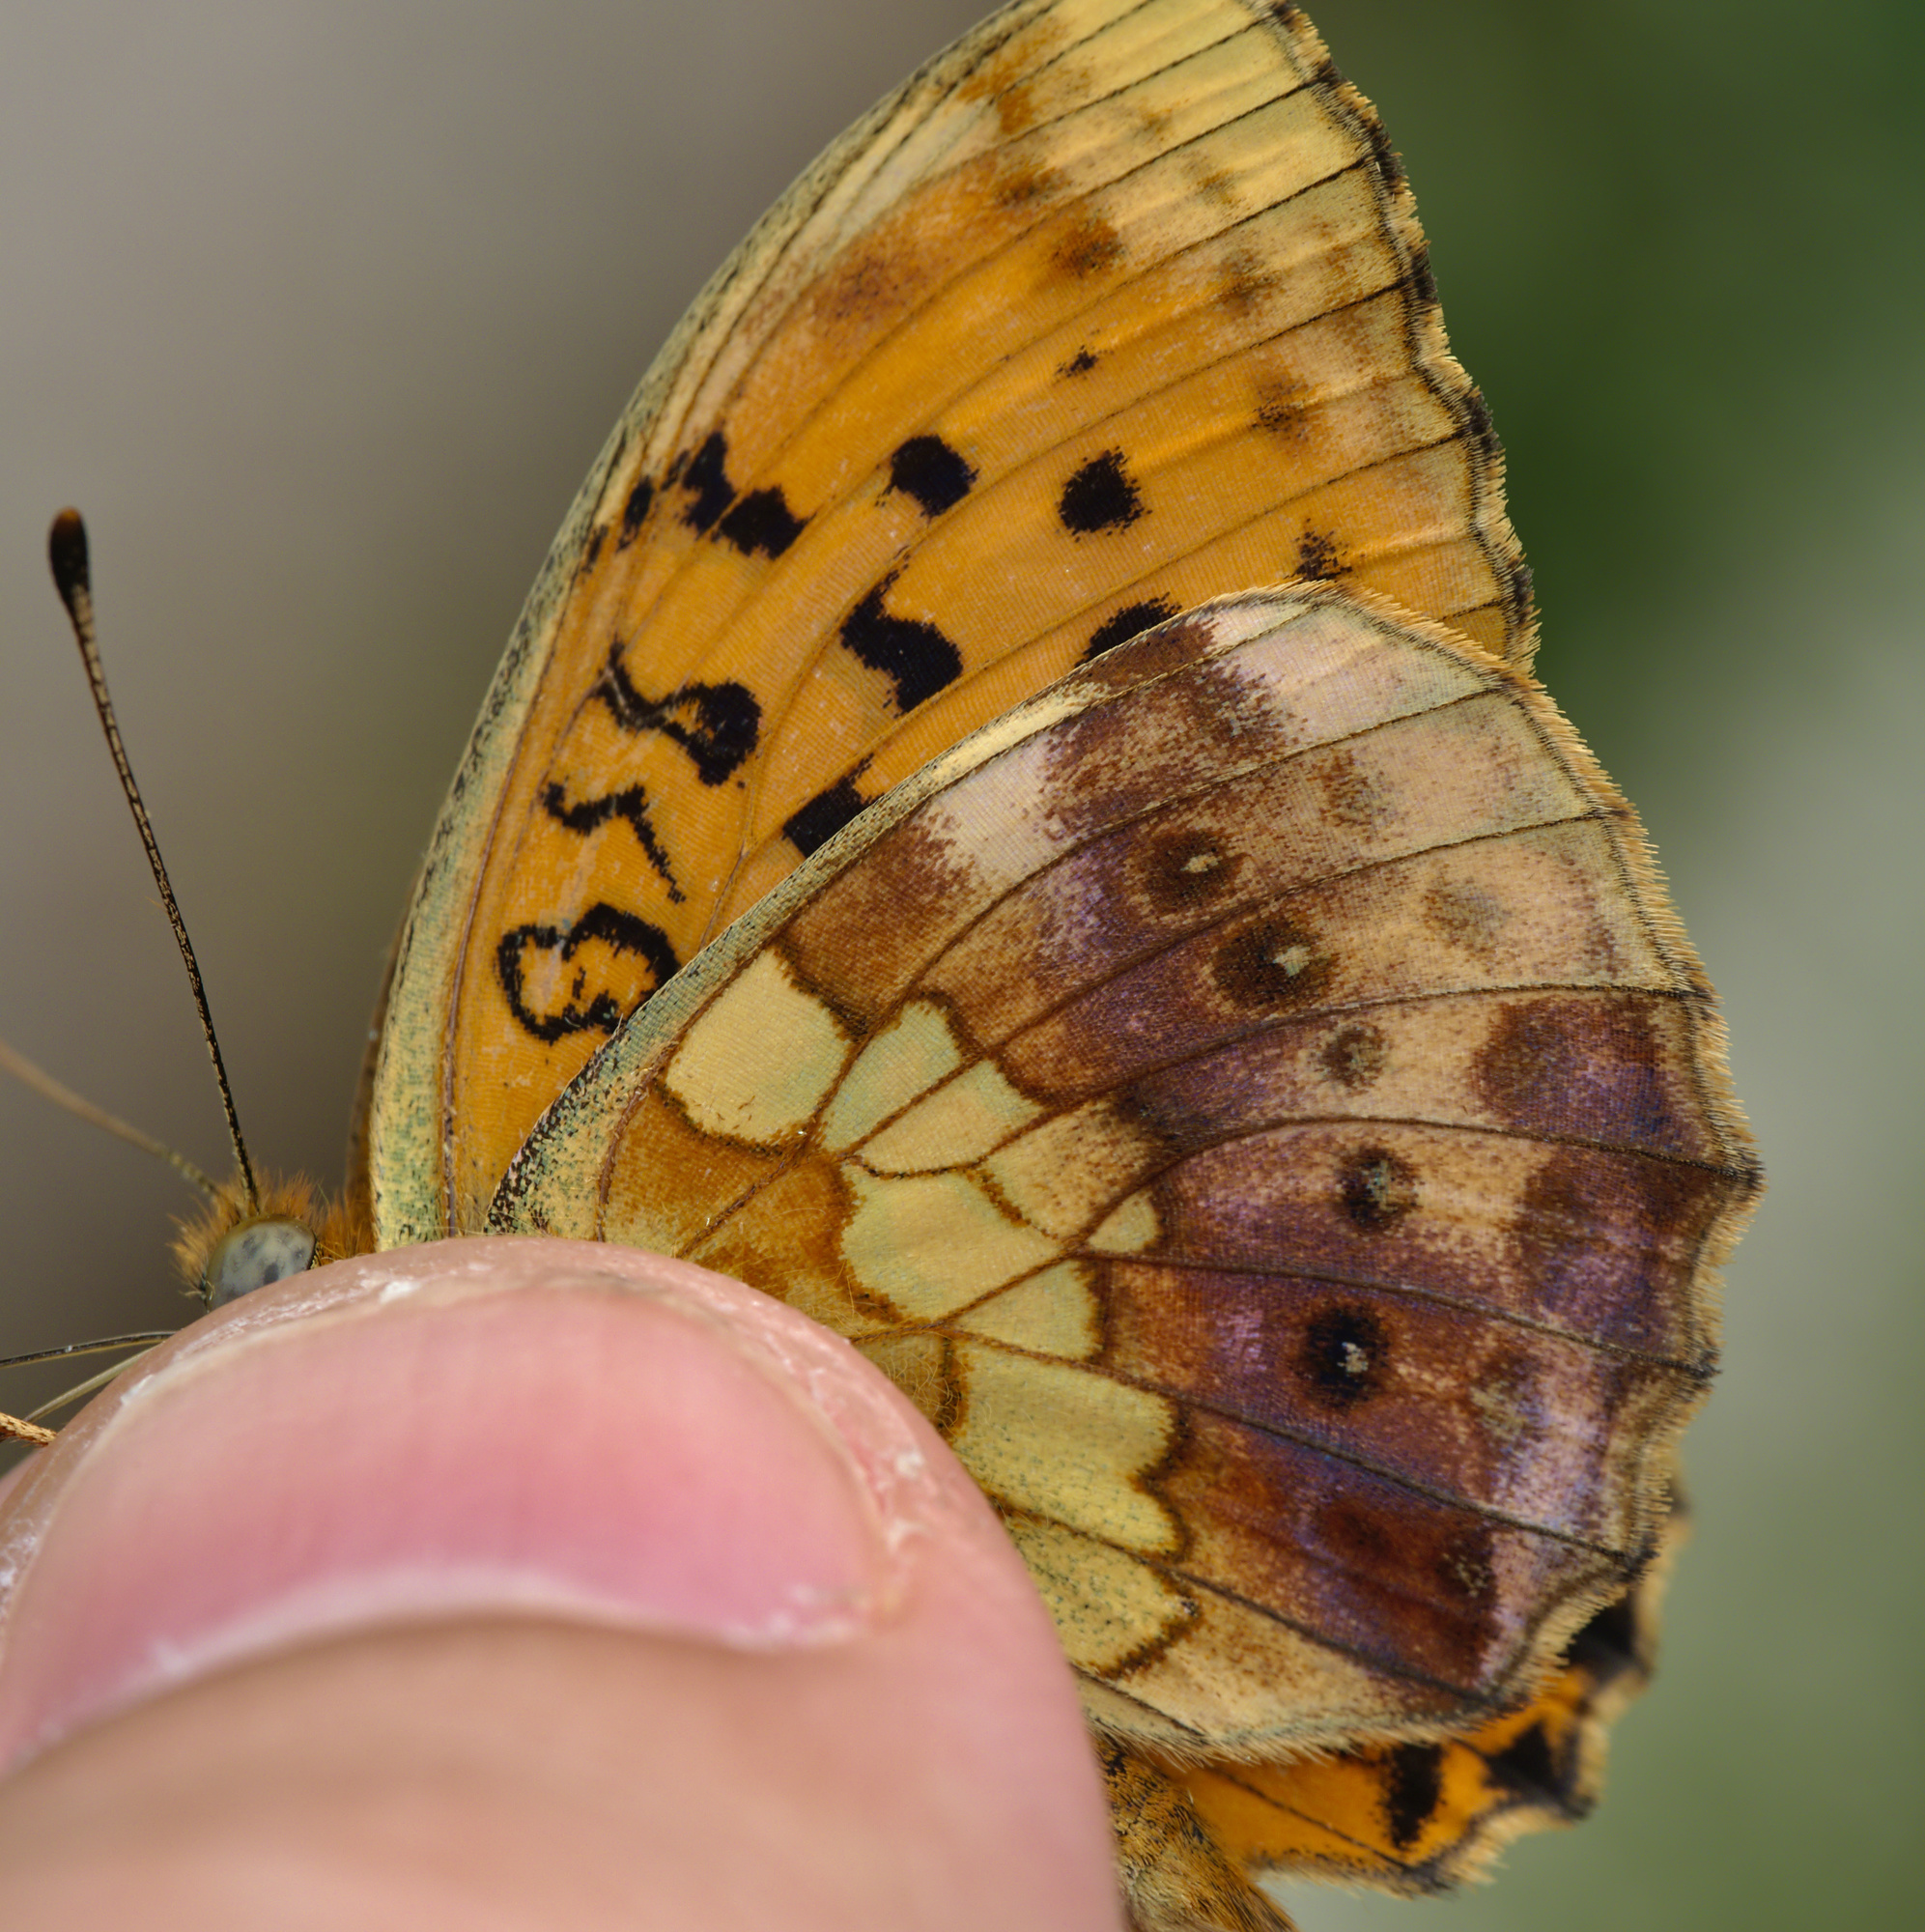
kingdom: Animalia
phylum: Arthropoda
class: Insecta
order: Lepidoptera
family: Nymphalidae
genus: Brenthis
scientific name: Brenthis daphne
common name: Marbled fritillary
